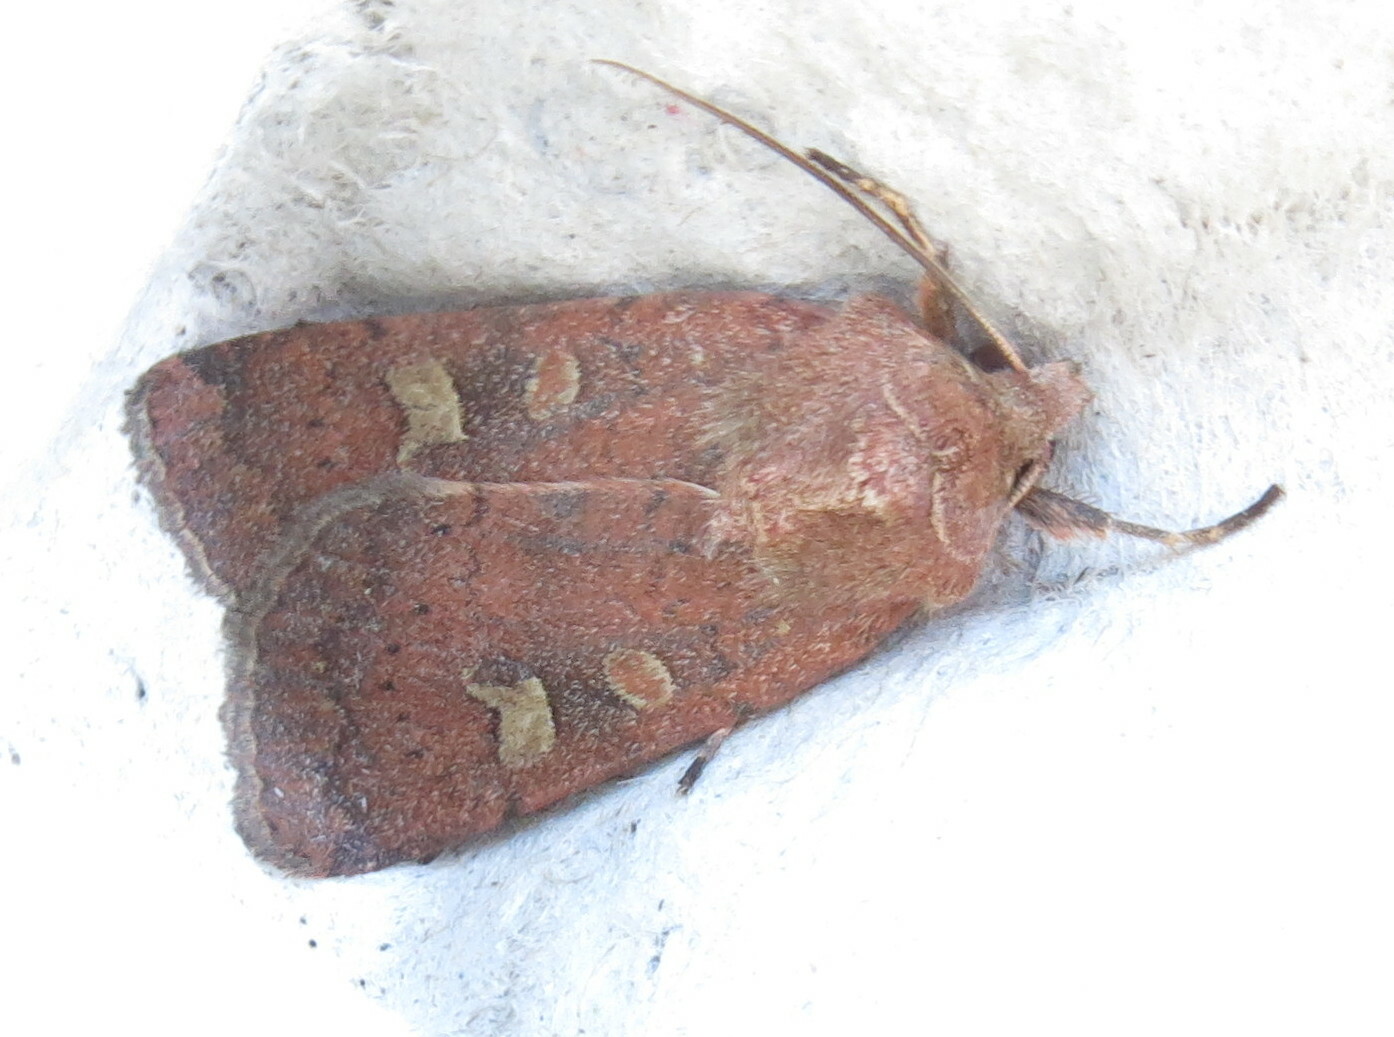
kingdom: Animalia
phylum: Arthropoda
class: Insecta
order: Lepidoptera
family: Noctuidae
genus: Xestia
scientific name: Xestia xanthographa
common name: Square-spot rustic
